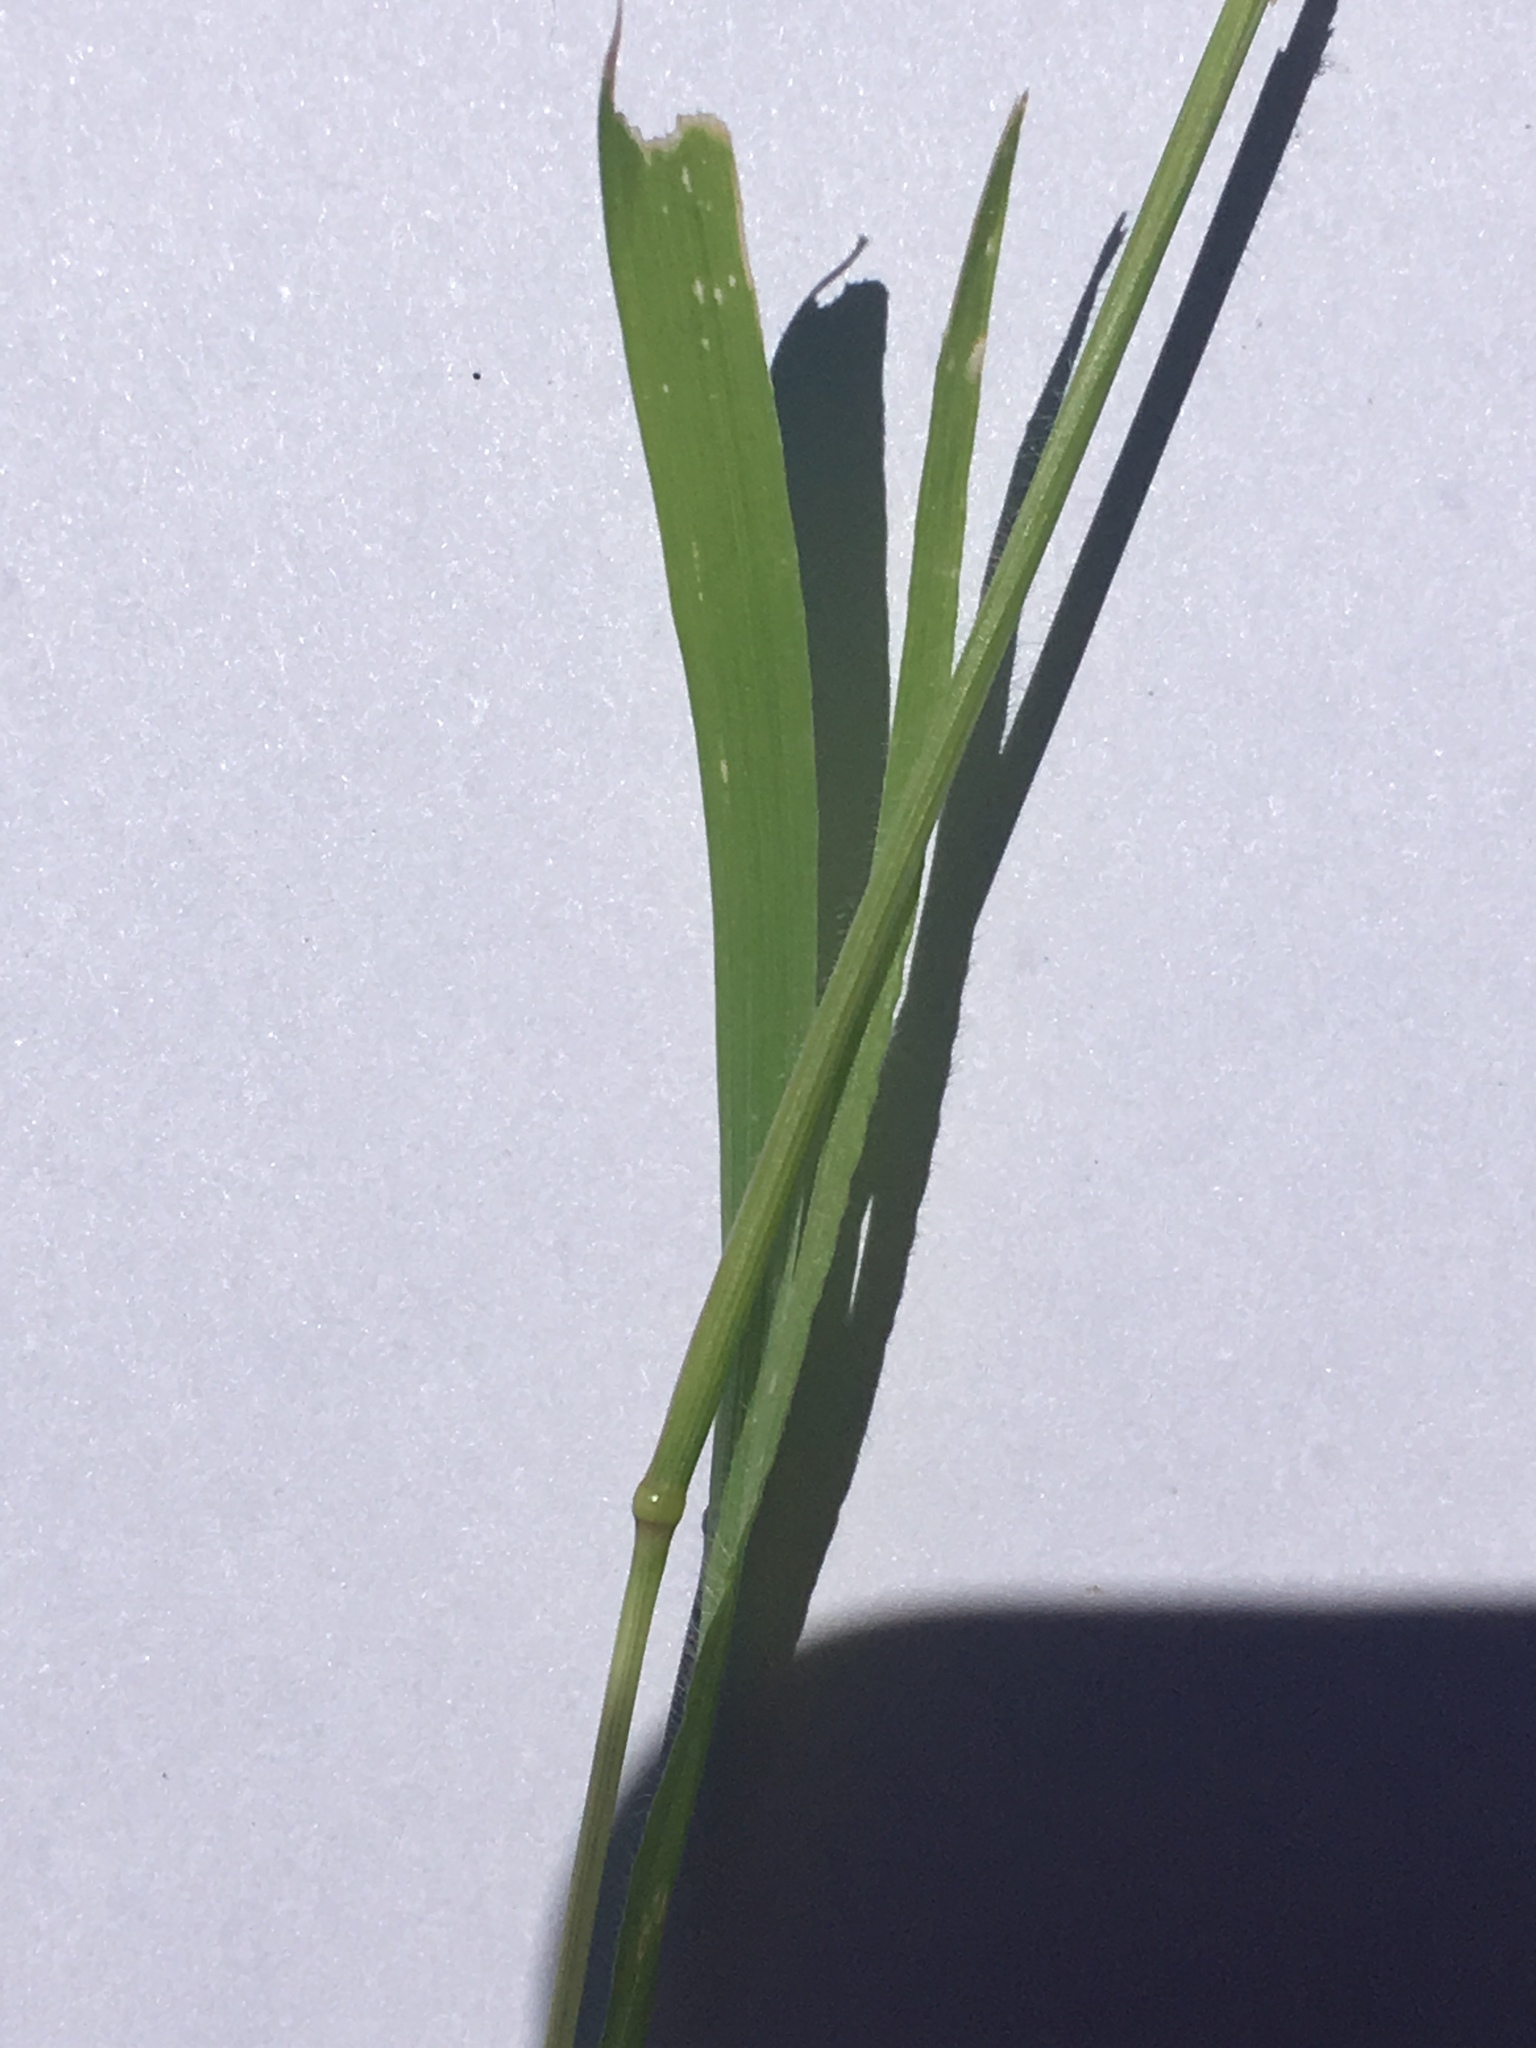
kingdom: Plantae
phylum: Tracheophyta
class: Liliopsida
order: Poales
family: Poaceae
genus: Limnodea
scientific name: Limnodea arkansana
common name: Ozark-grass
